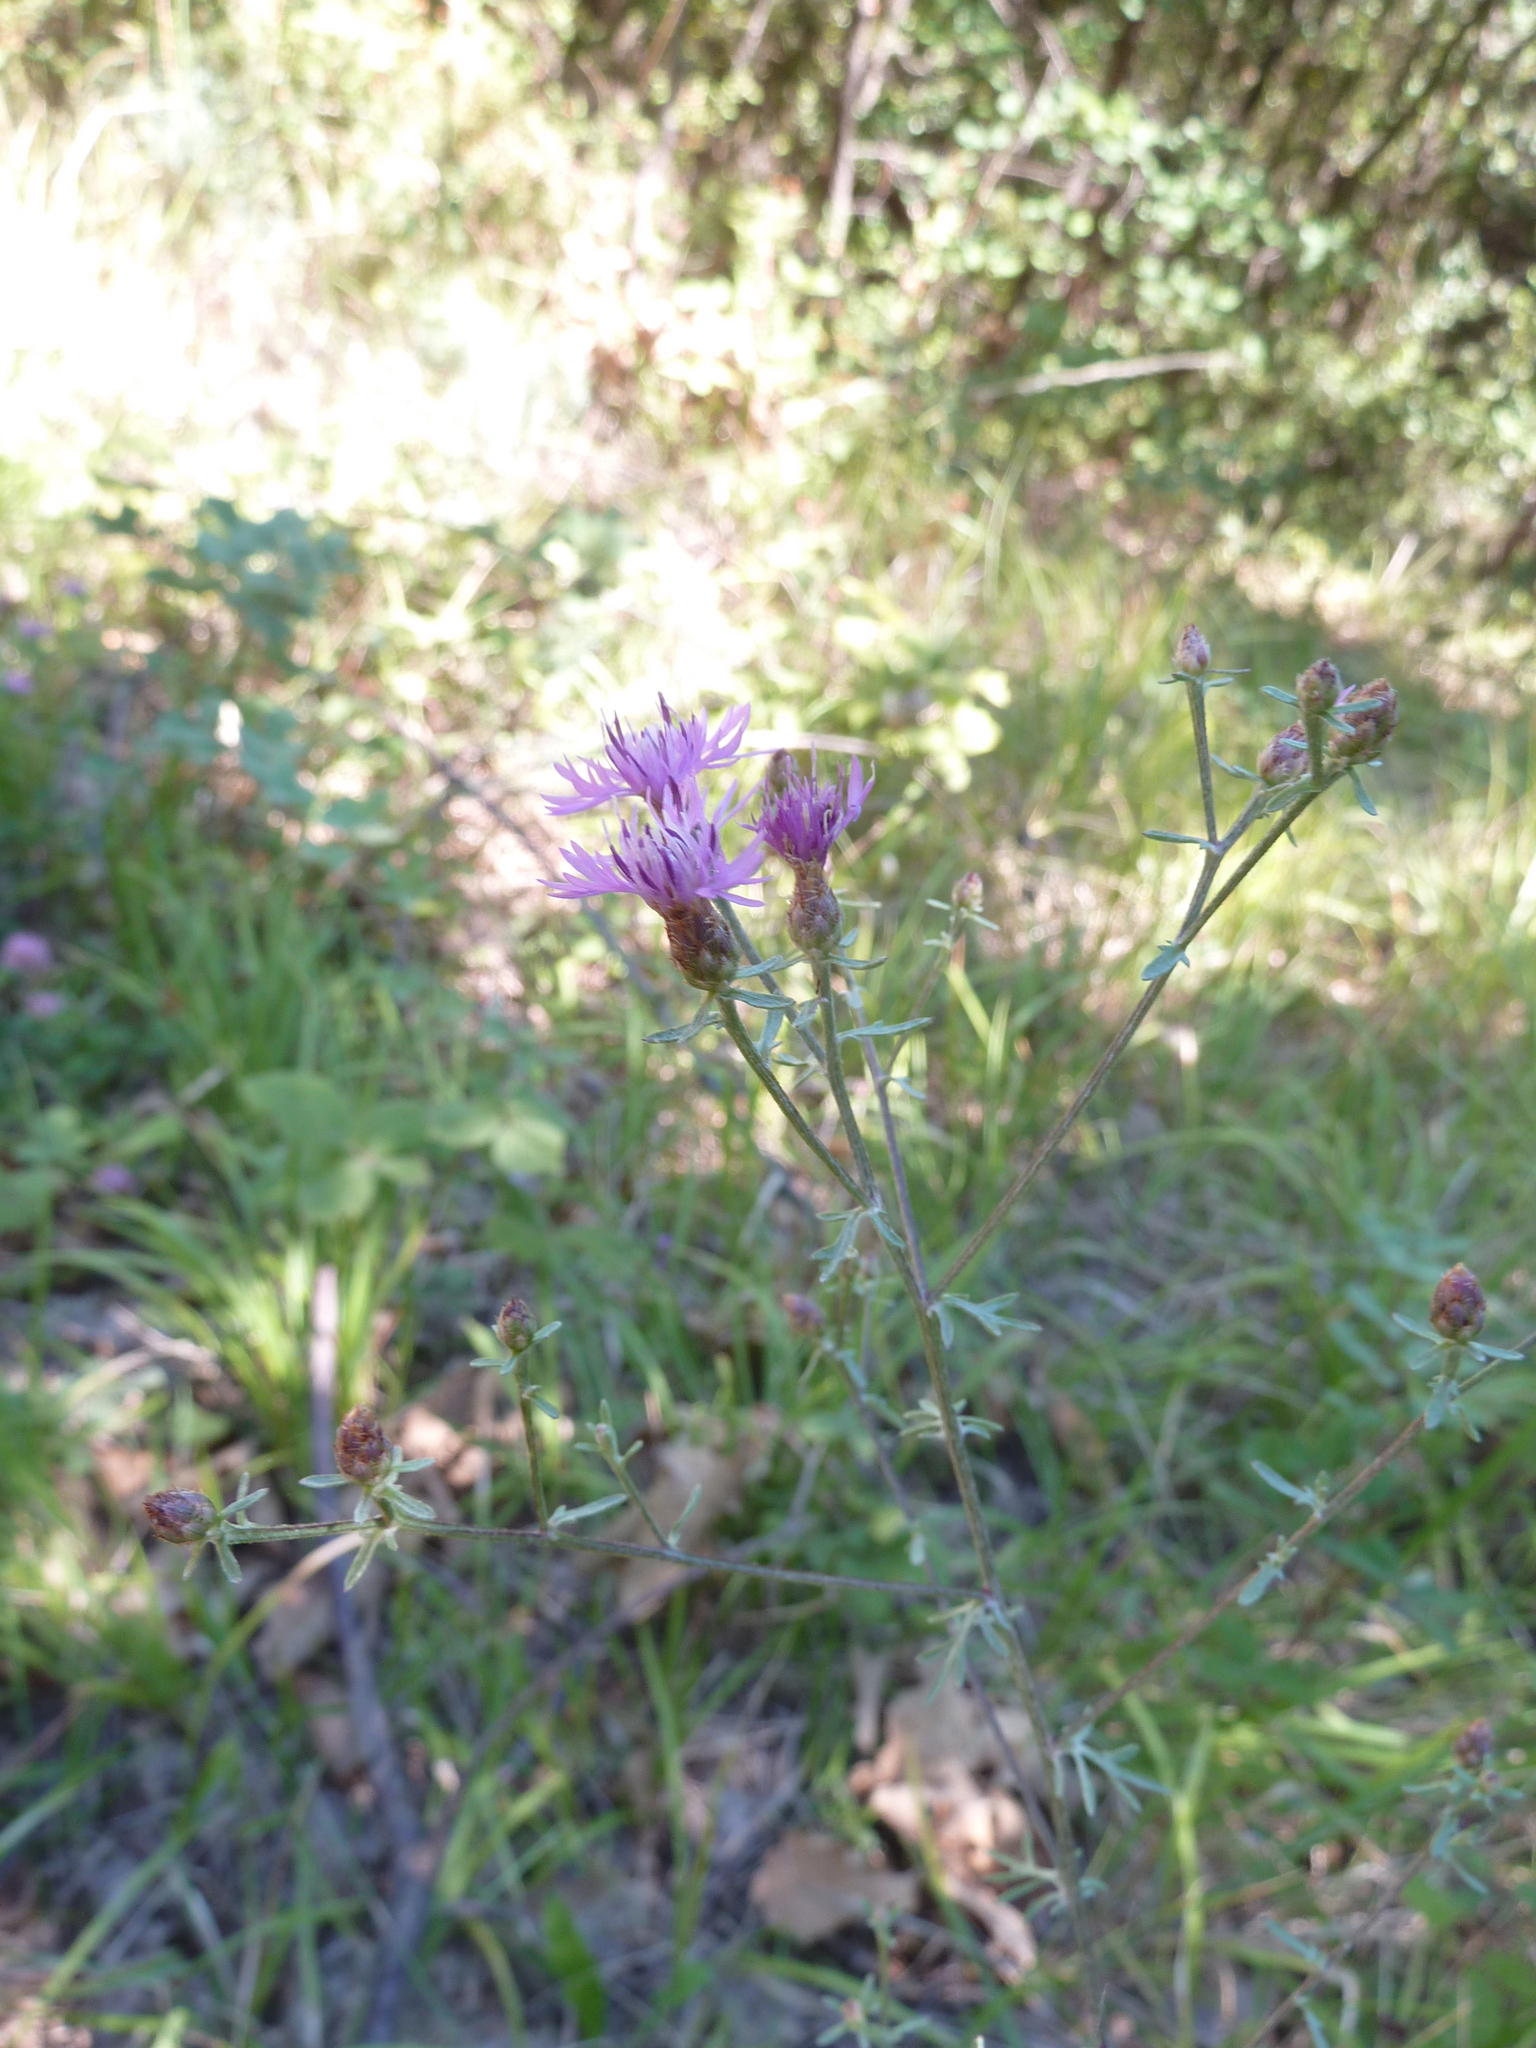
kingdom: Plantae
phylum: Tracheophyta
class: Magnoliopsida
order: Asterales
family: Asteraceae
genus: Centaurea
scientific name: Centaurea stoebe
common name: Spotted knapweed
